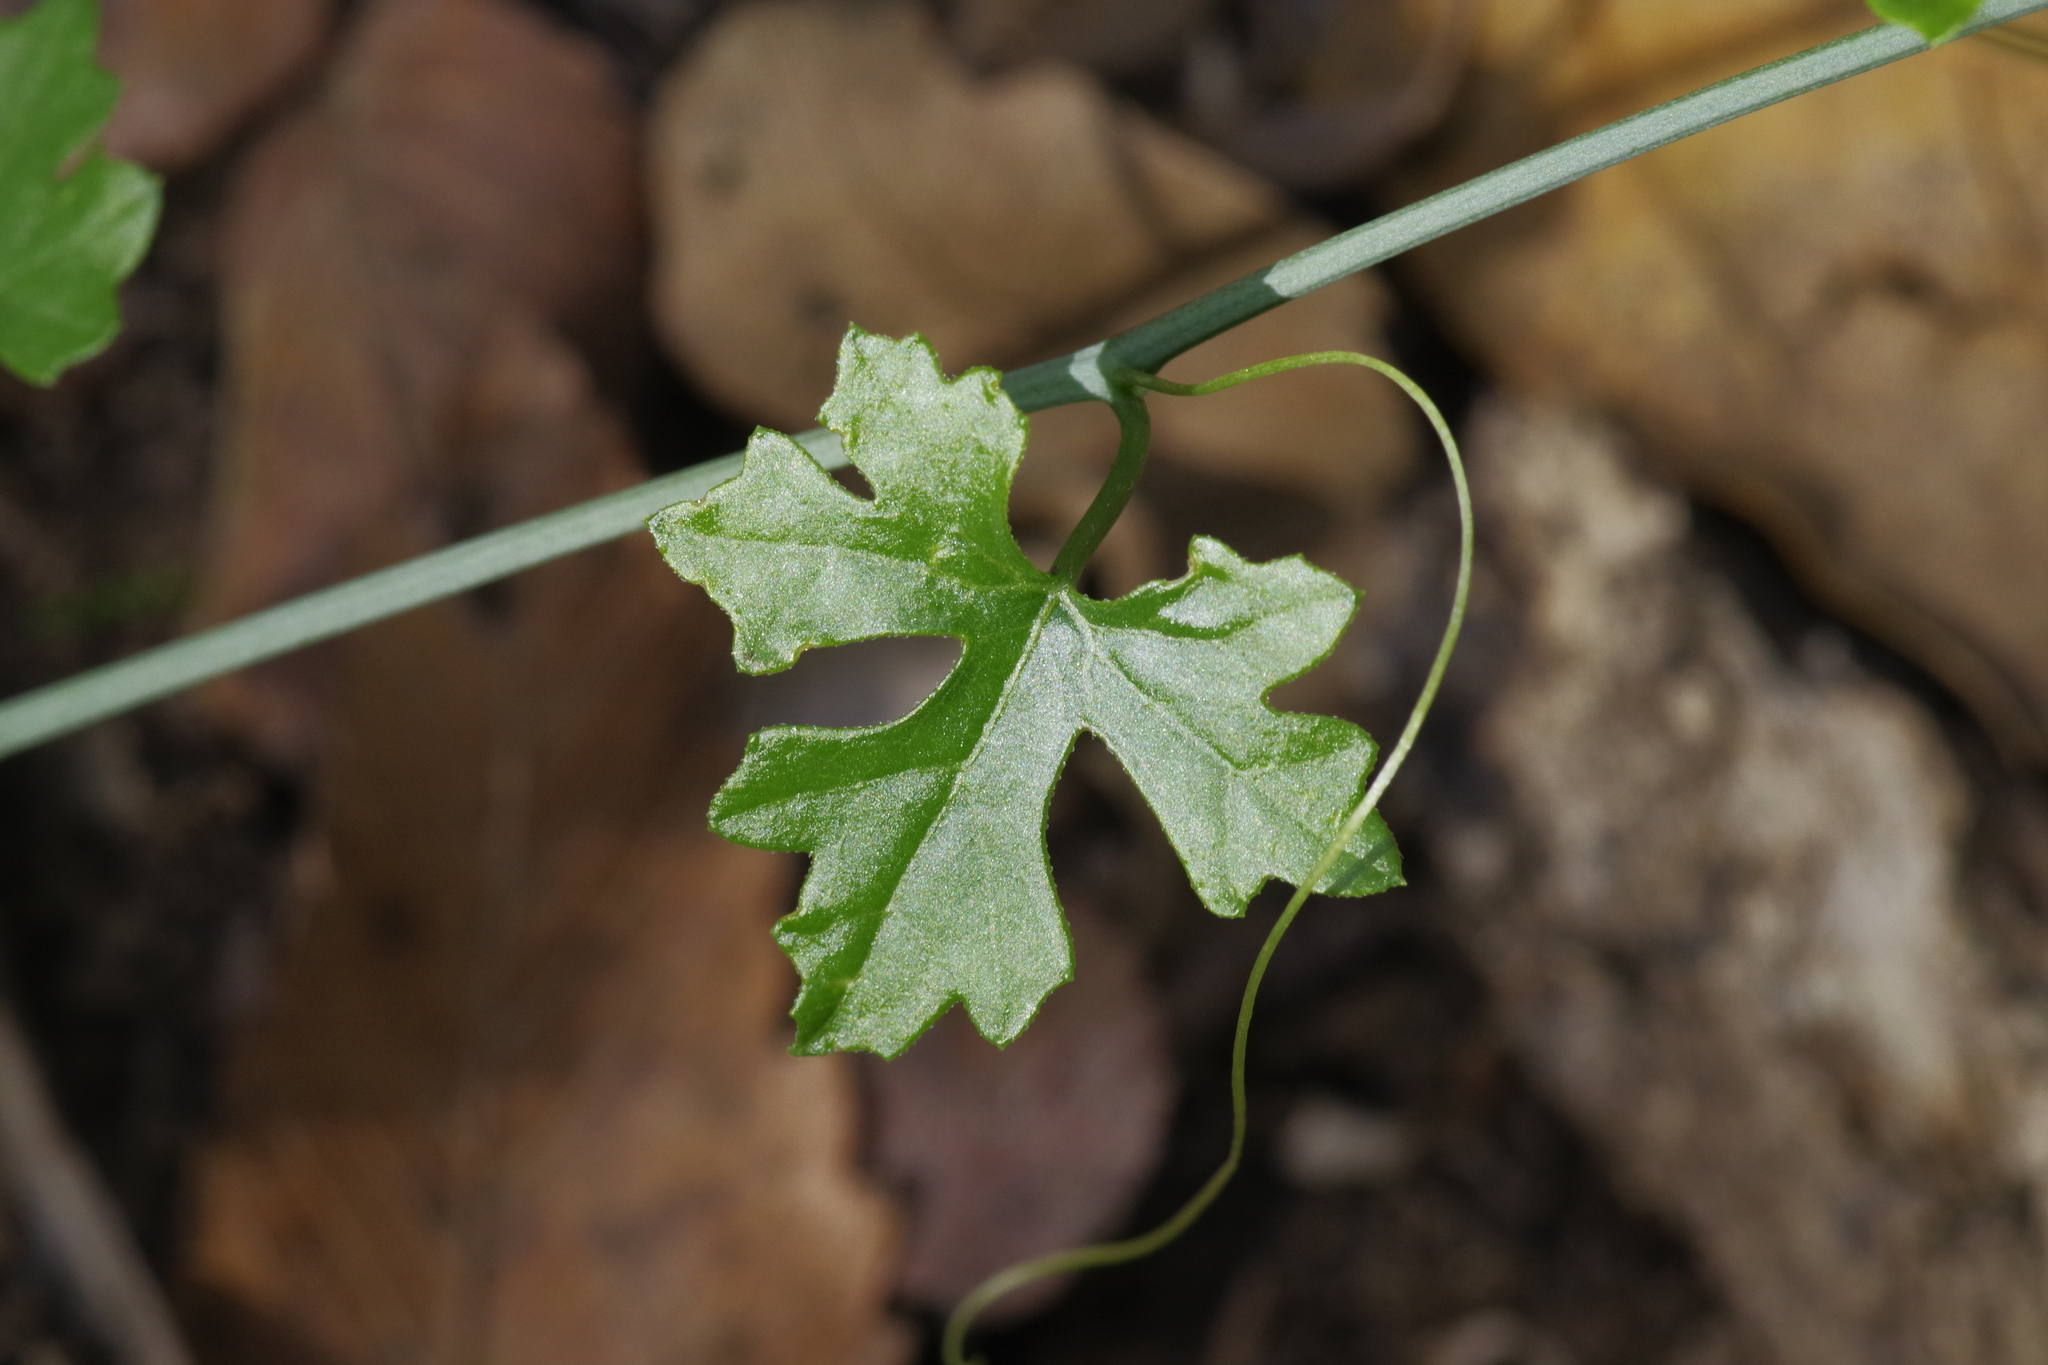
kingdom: Plantae
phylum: Tracheophyta
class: Magnoliopsida
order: Cucurbitales
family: Cucurbitaceae
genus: Ibervillea
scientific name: Ibervillea lindheimeri
